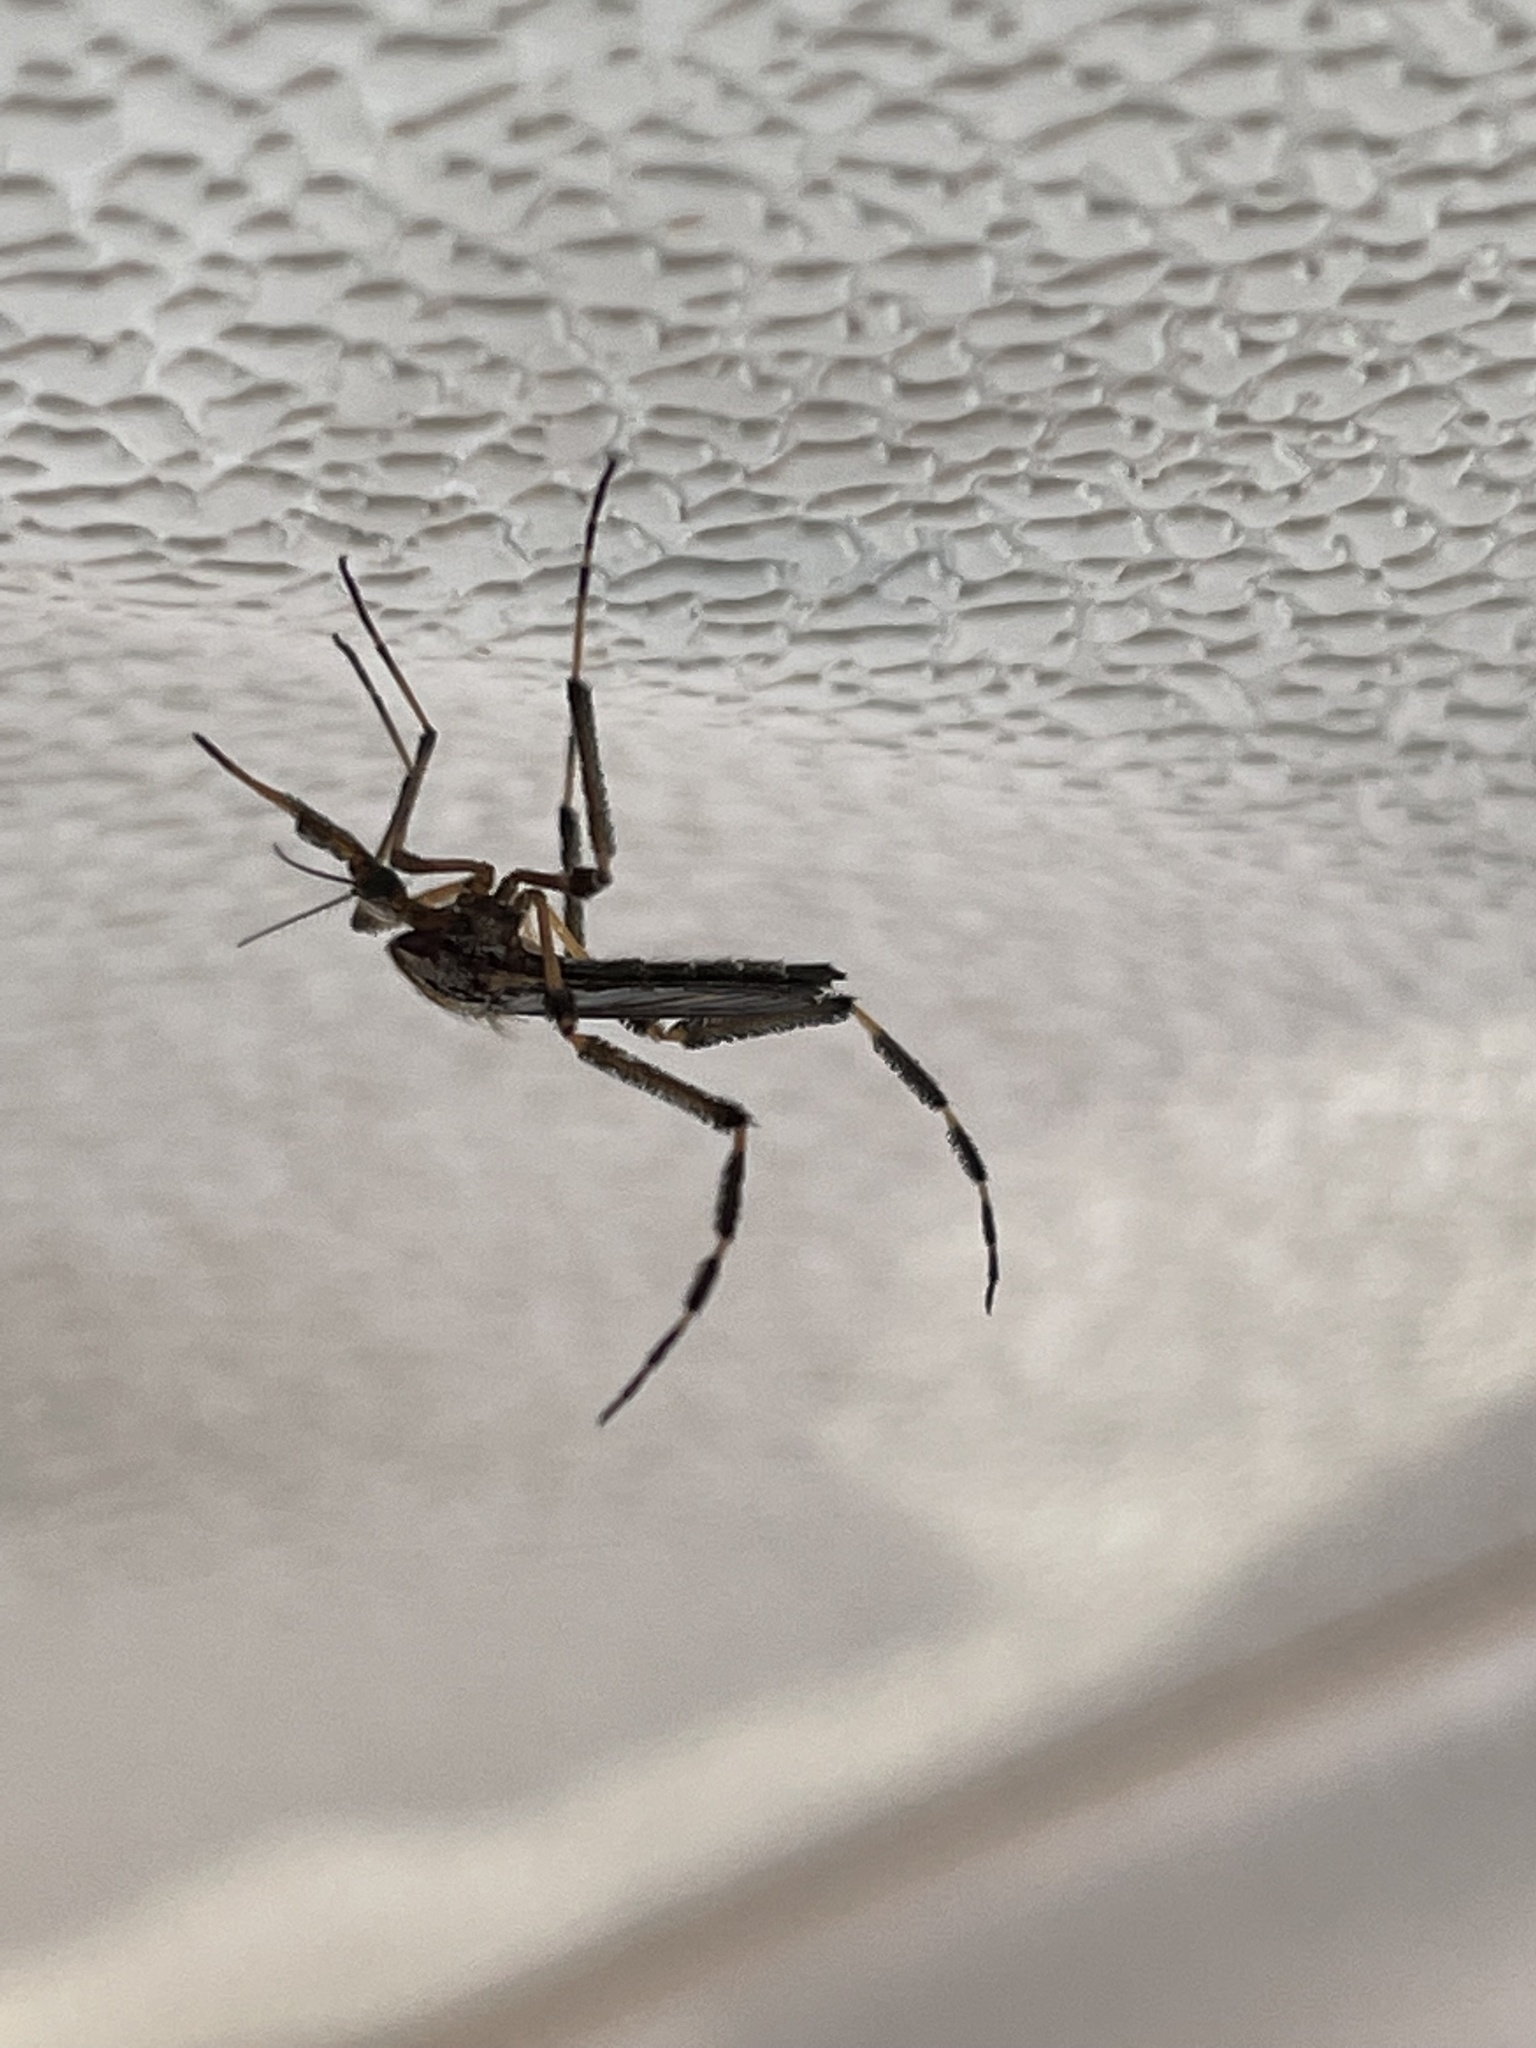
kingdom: Animalia
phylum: Arthropoda
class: Insecta
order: Diptera
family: Culicidae
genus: Psorophora
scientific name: Psorophora ciliata
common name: Gallinipper
